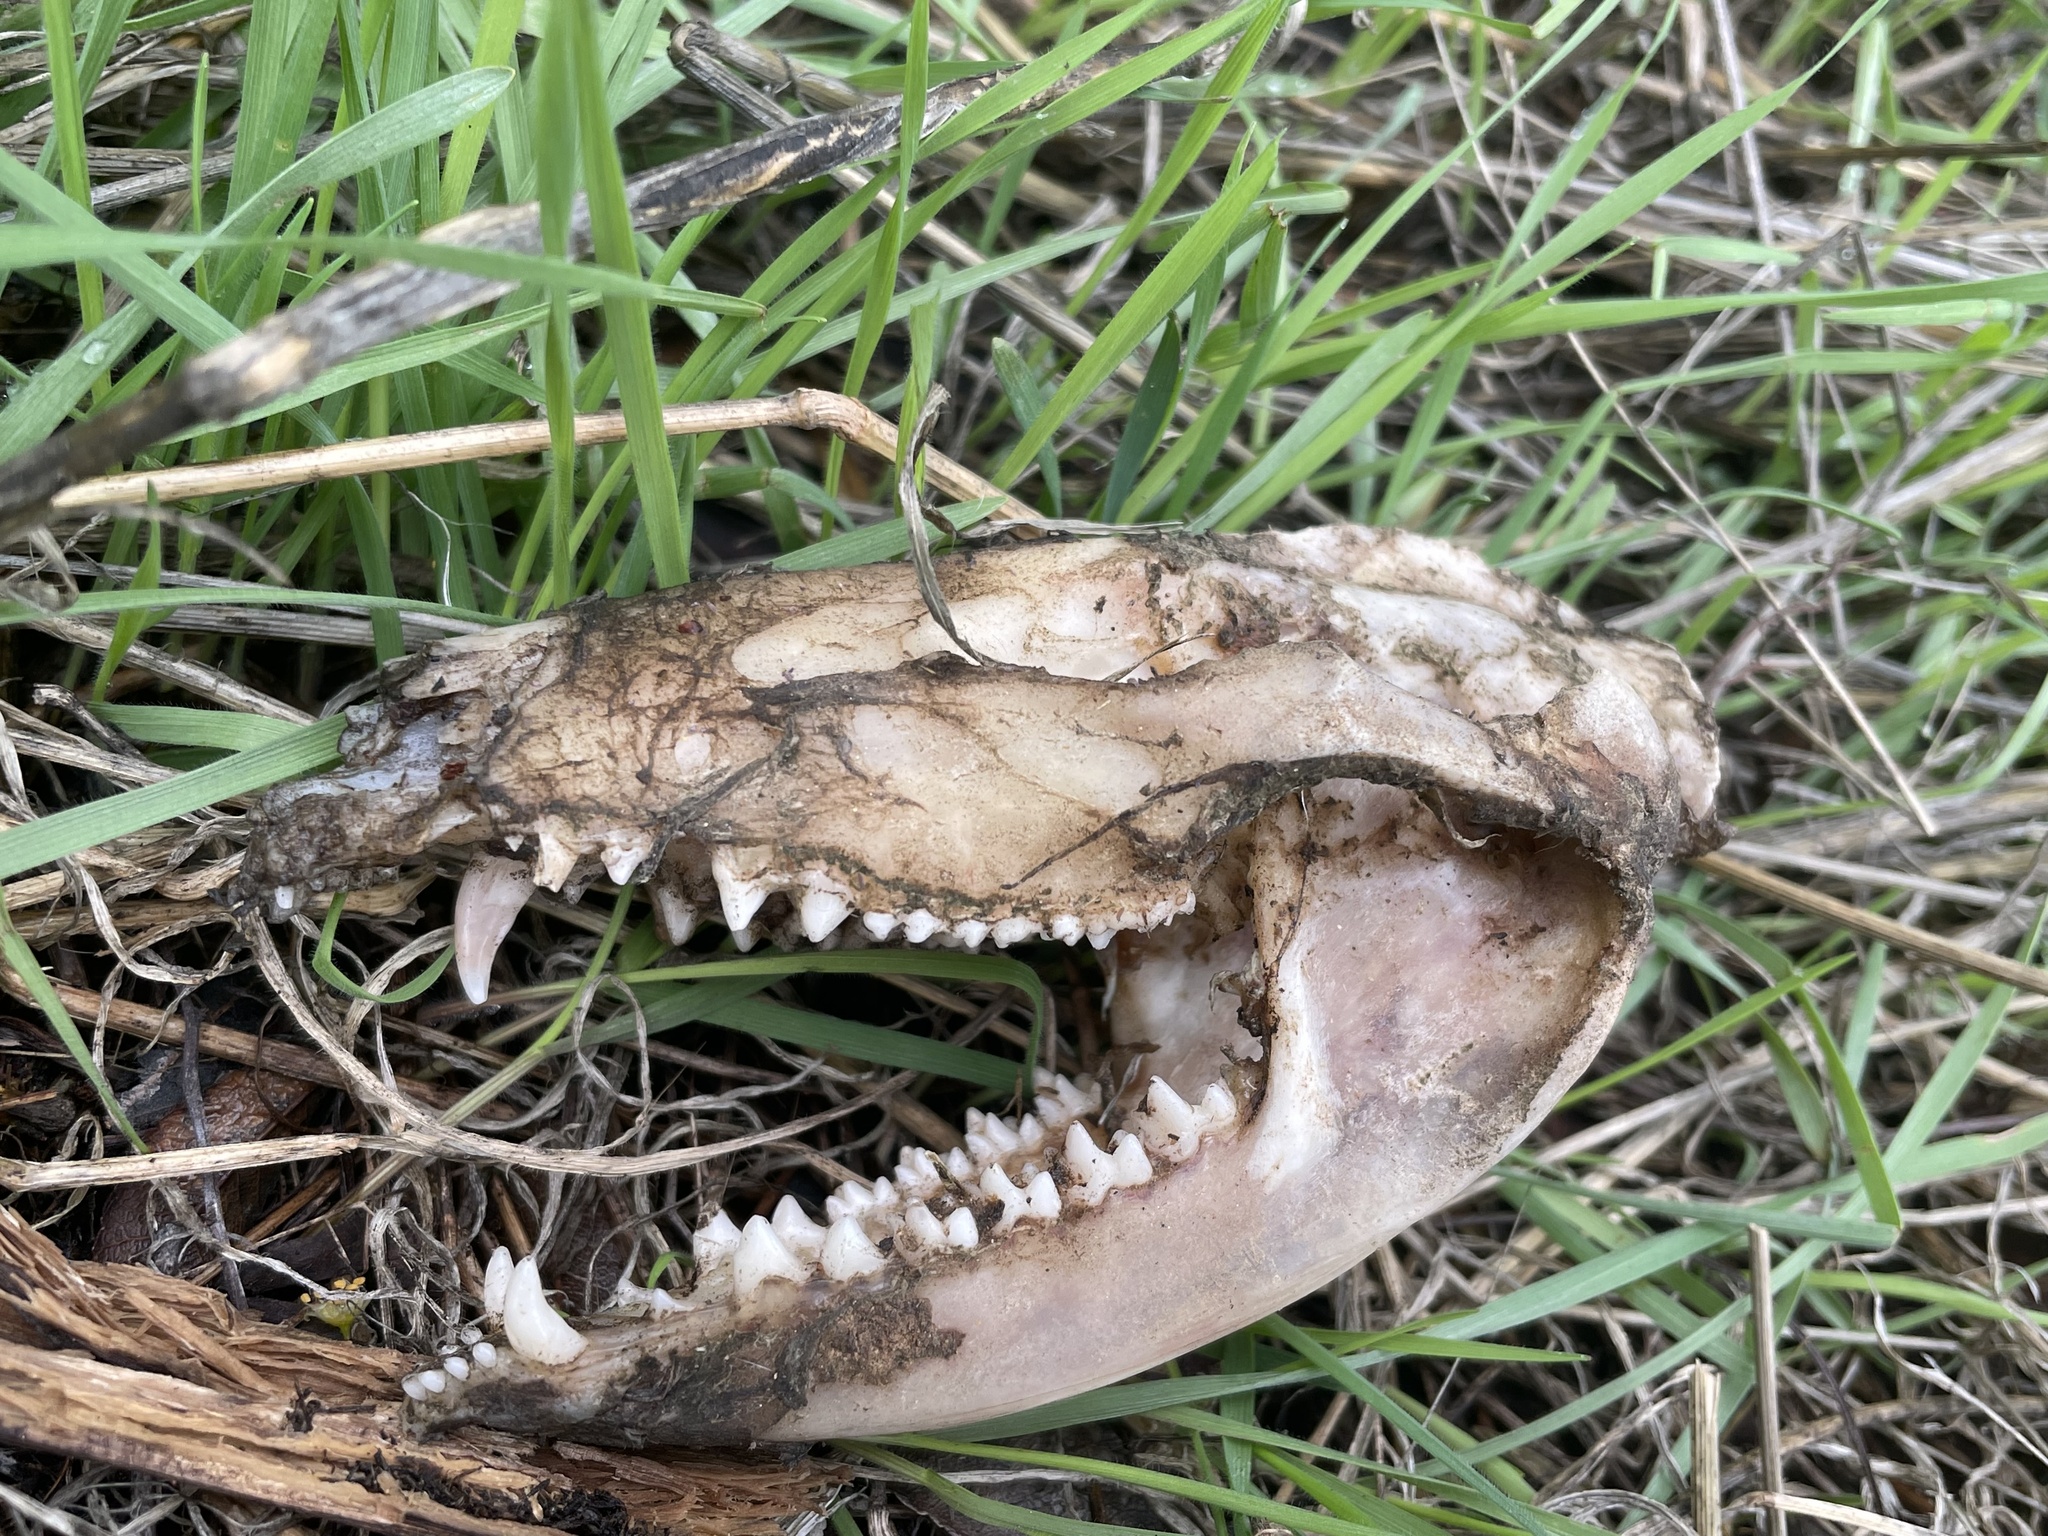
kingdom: Animalia
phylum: Chordata
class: Mammalia
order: Didelphimorphia
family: Didelphidae
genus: Didelphis
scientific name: Didelphis virginiana
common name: Virginia opossum
